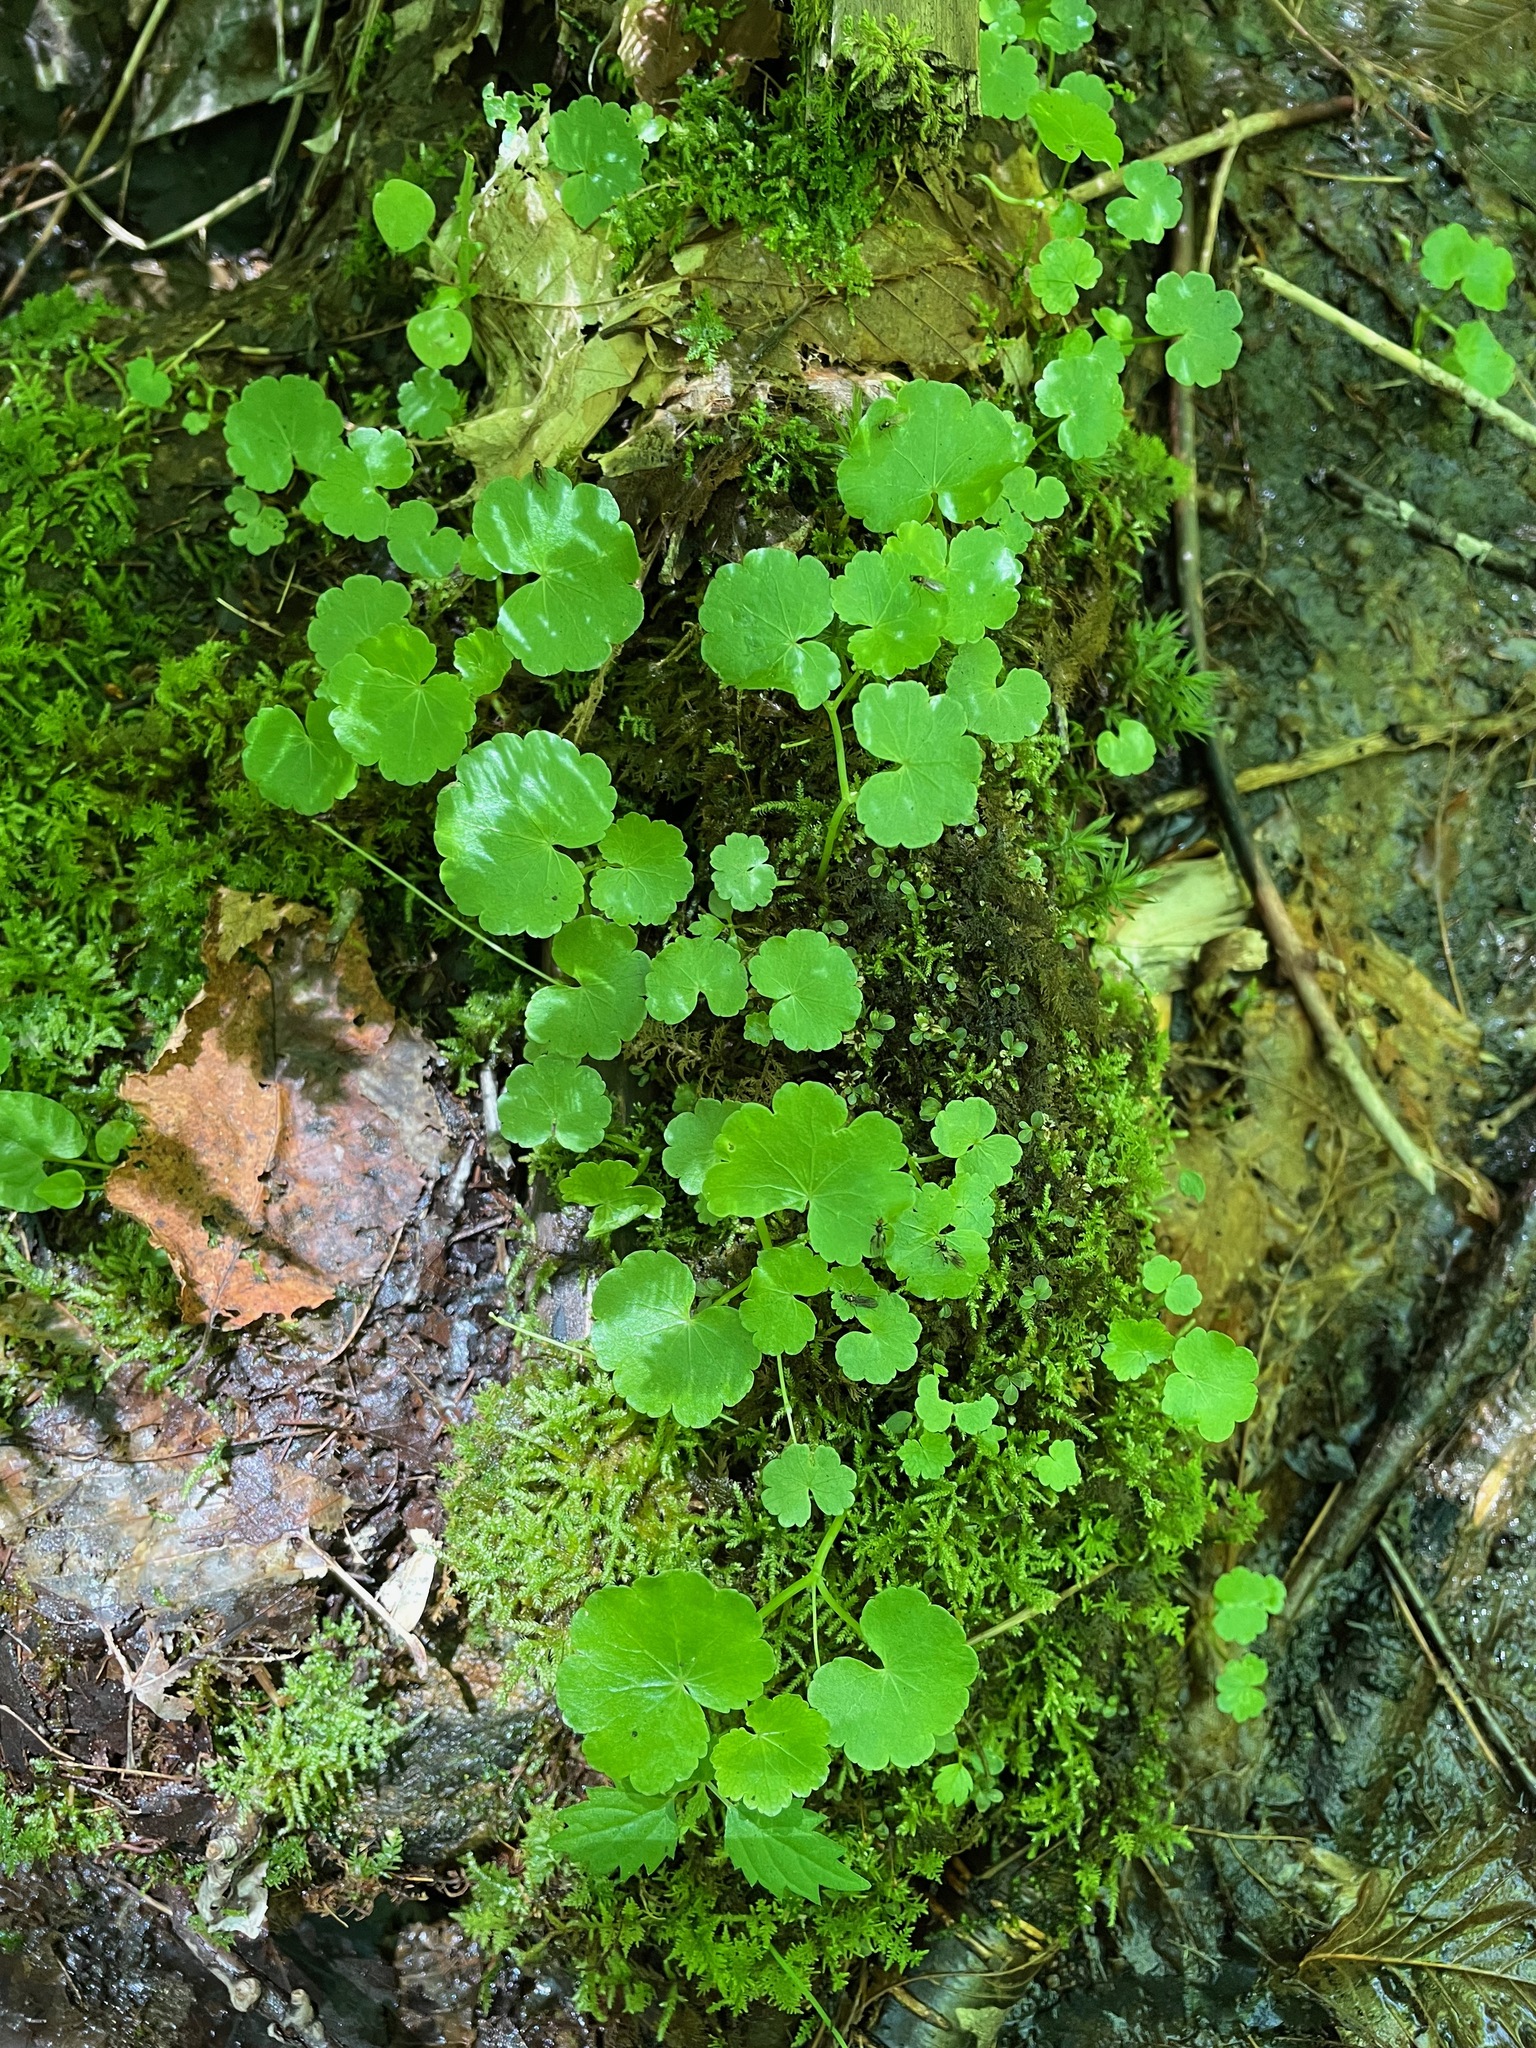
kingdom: Plantae
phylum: Tracheophyta
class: Magnoliopsida
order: Apiales
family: Araliaceae
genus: Hydrocotyle
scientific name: Hydrocotyle americana
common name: American water-pennywort
